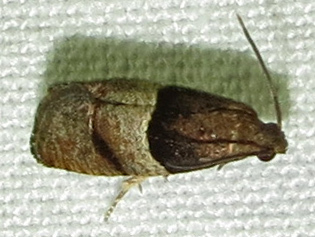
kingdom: Animalia
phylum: Arthropoda
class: Insecta
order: Lepidoptera
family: Tortricidae
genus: Larisa
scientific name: Larisa subsolana
